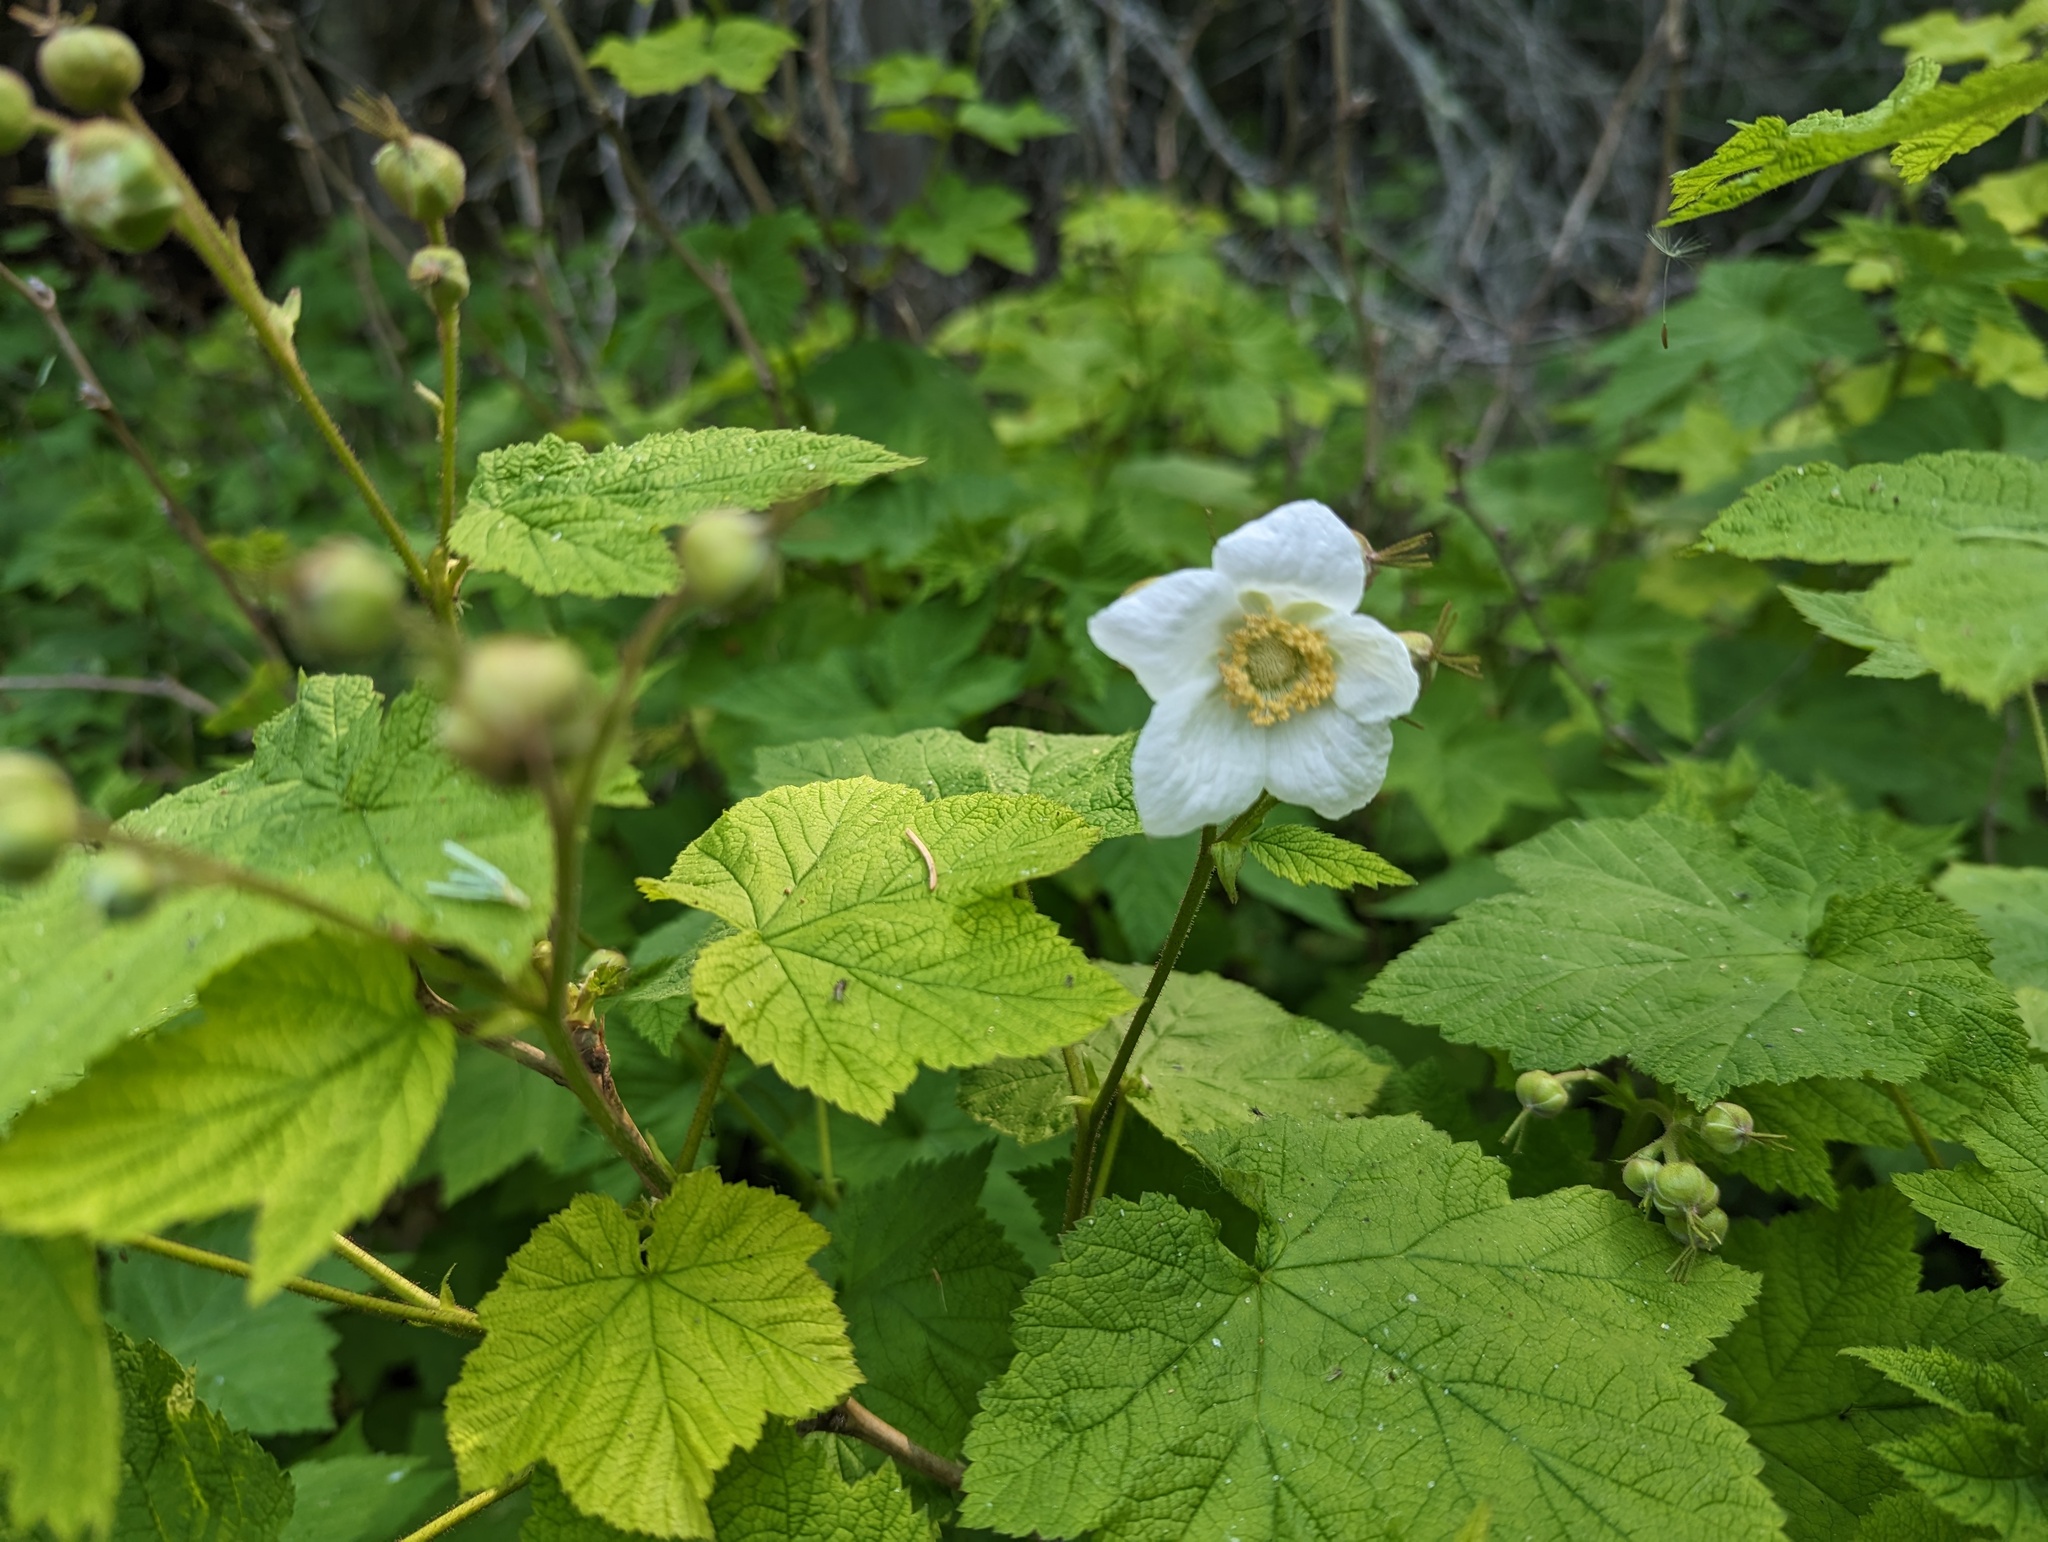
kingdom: Plantae
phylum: Tracheophyta
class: Magnoliopsida
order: Rosales
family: Rosaceae
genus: Rubus
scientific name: Rubus parviflorus
